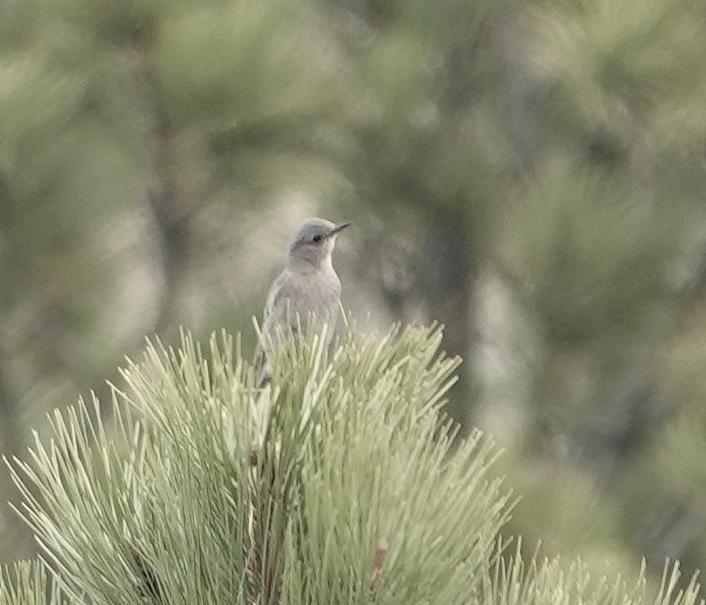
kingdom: Animalia
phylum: Chordata
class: Aves
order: Passeriformes
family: Turdidae
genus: Sialia
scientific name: Sialia currucoides
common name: Mountain bluebird
